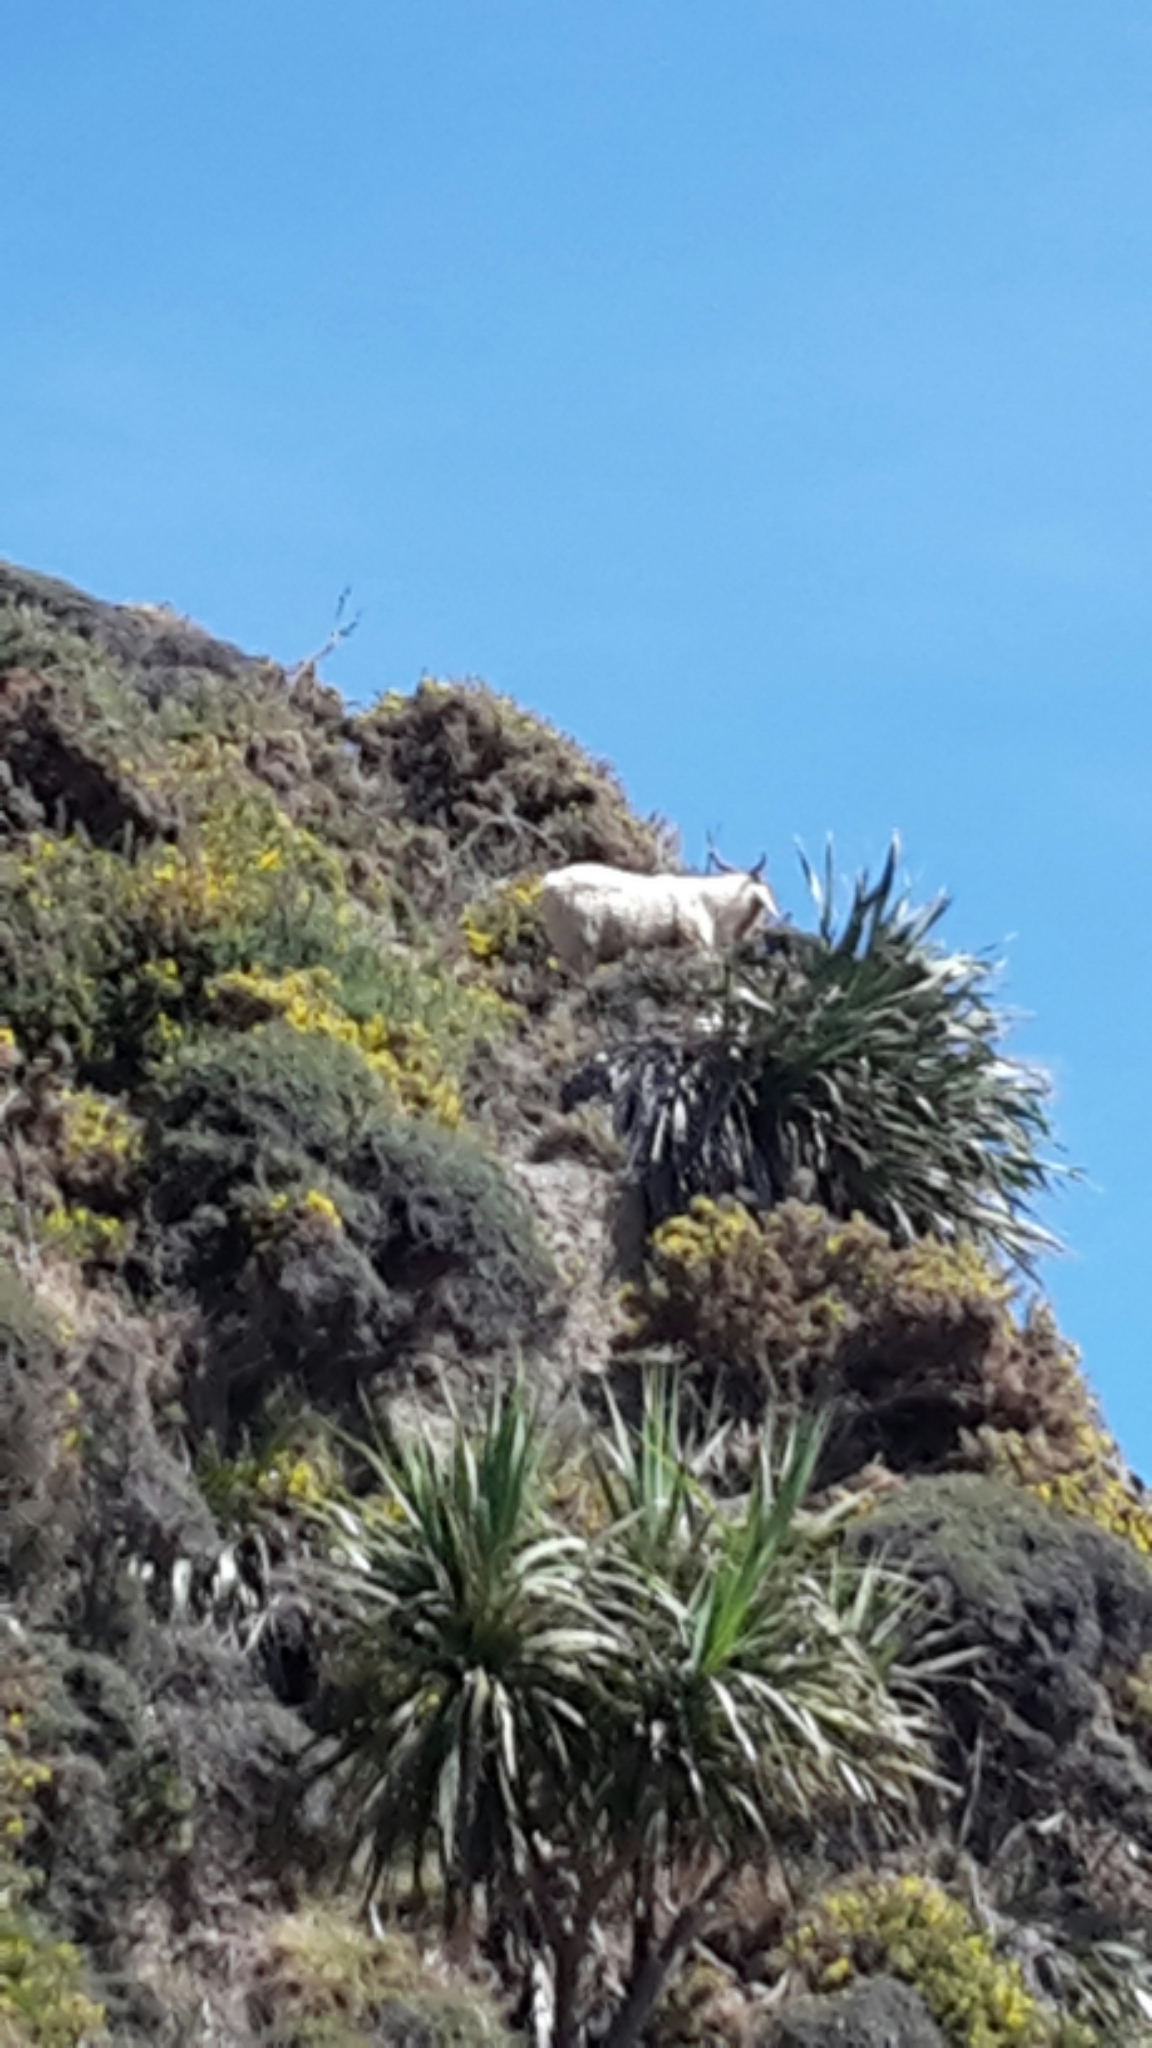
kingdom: Animalia
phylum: Chordata
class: Mammalia
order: Artiodactyla
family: Bovidae
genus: Capra
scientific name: Capra hircus
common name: Domestic goat
